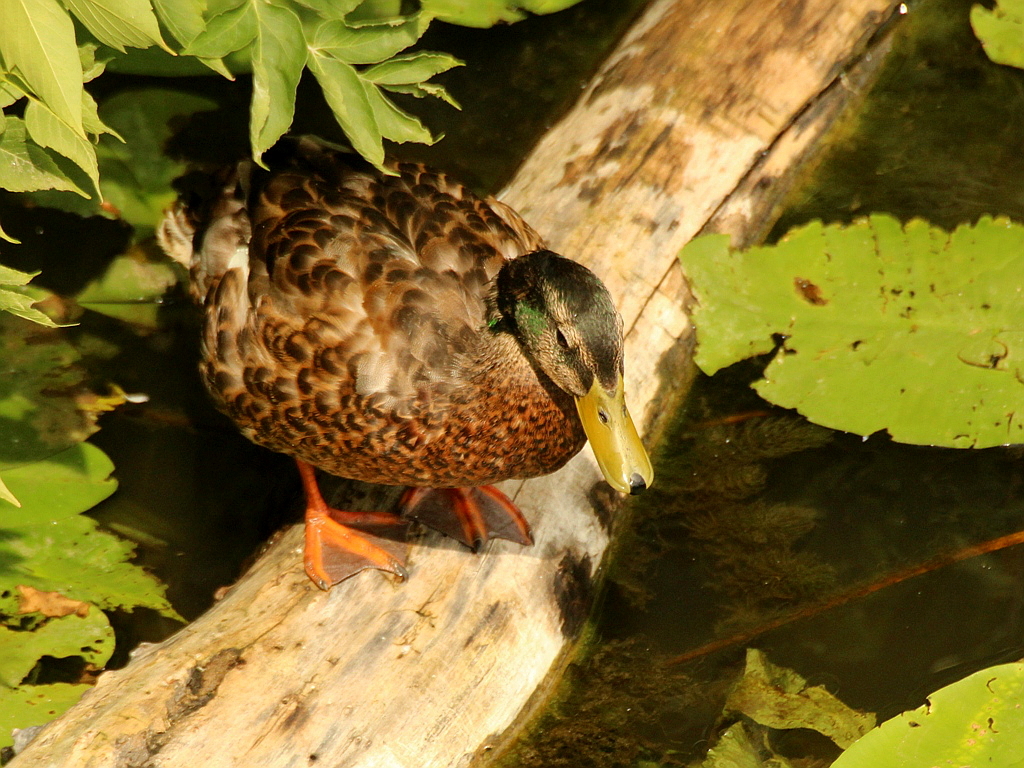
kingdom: Animalia
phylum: Chordata
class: Aves
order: Anseriformes
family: Anatidae
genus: Anas
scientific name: Anas platyrhynchos
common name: Mallard
